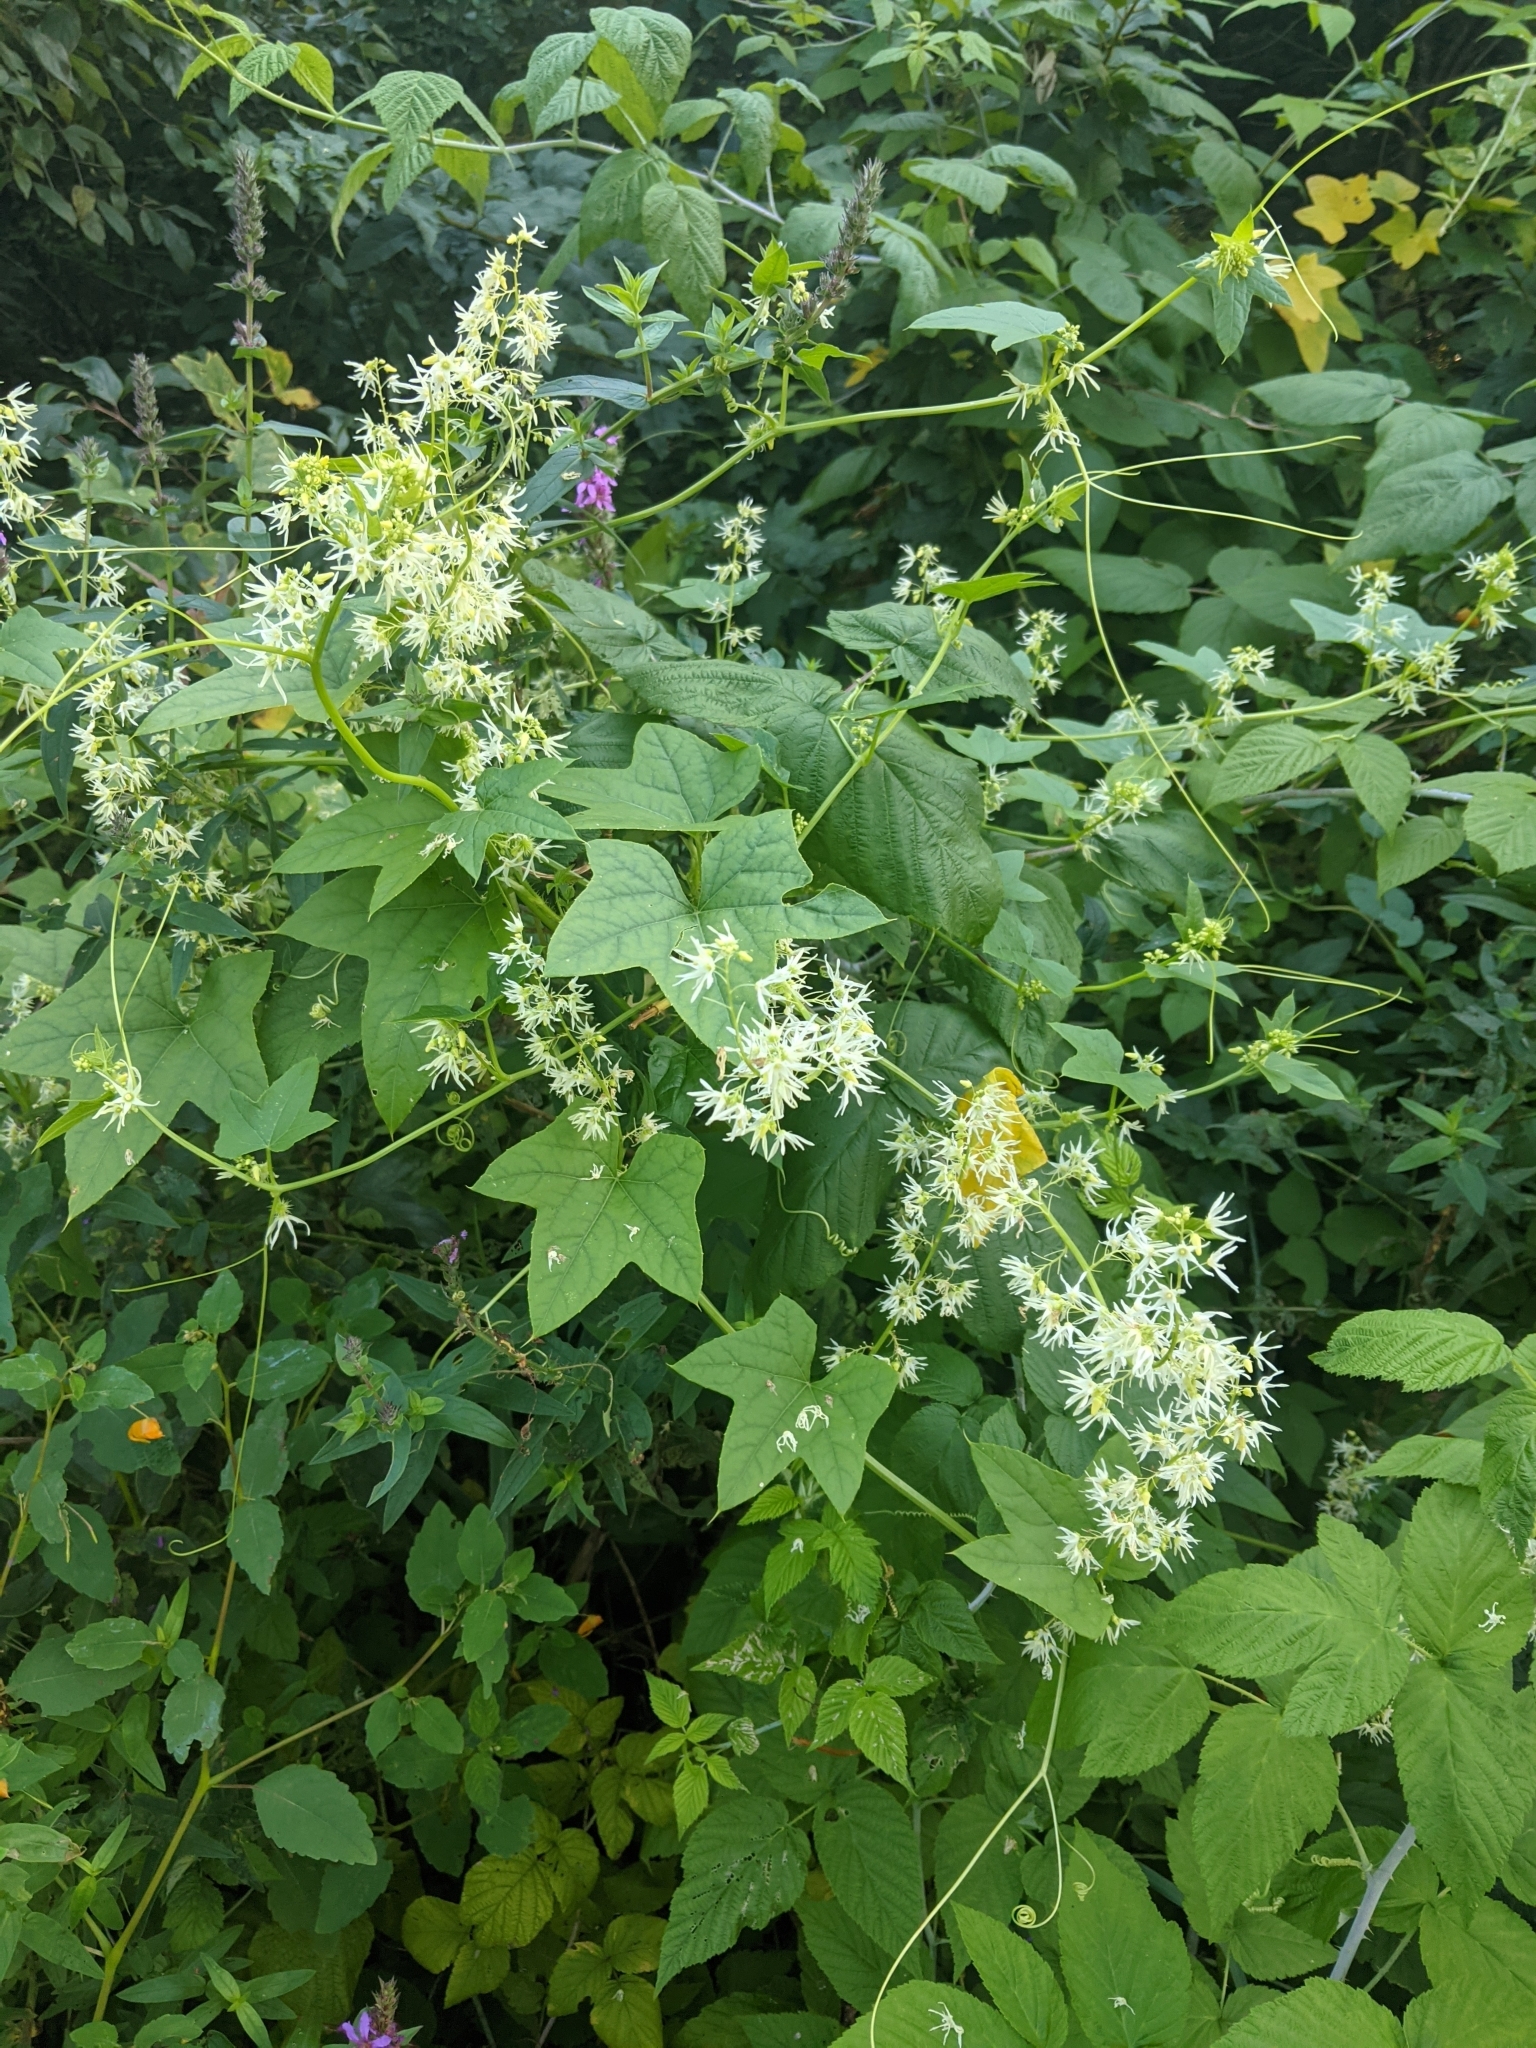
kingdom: Plantae
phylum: Tracheophyta
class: Magnoliopsida
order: Cucurbitales
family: Cucurbitaceae
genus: Echinocystis
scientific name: Echinocystis lobata
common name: Wild cucumber
